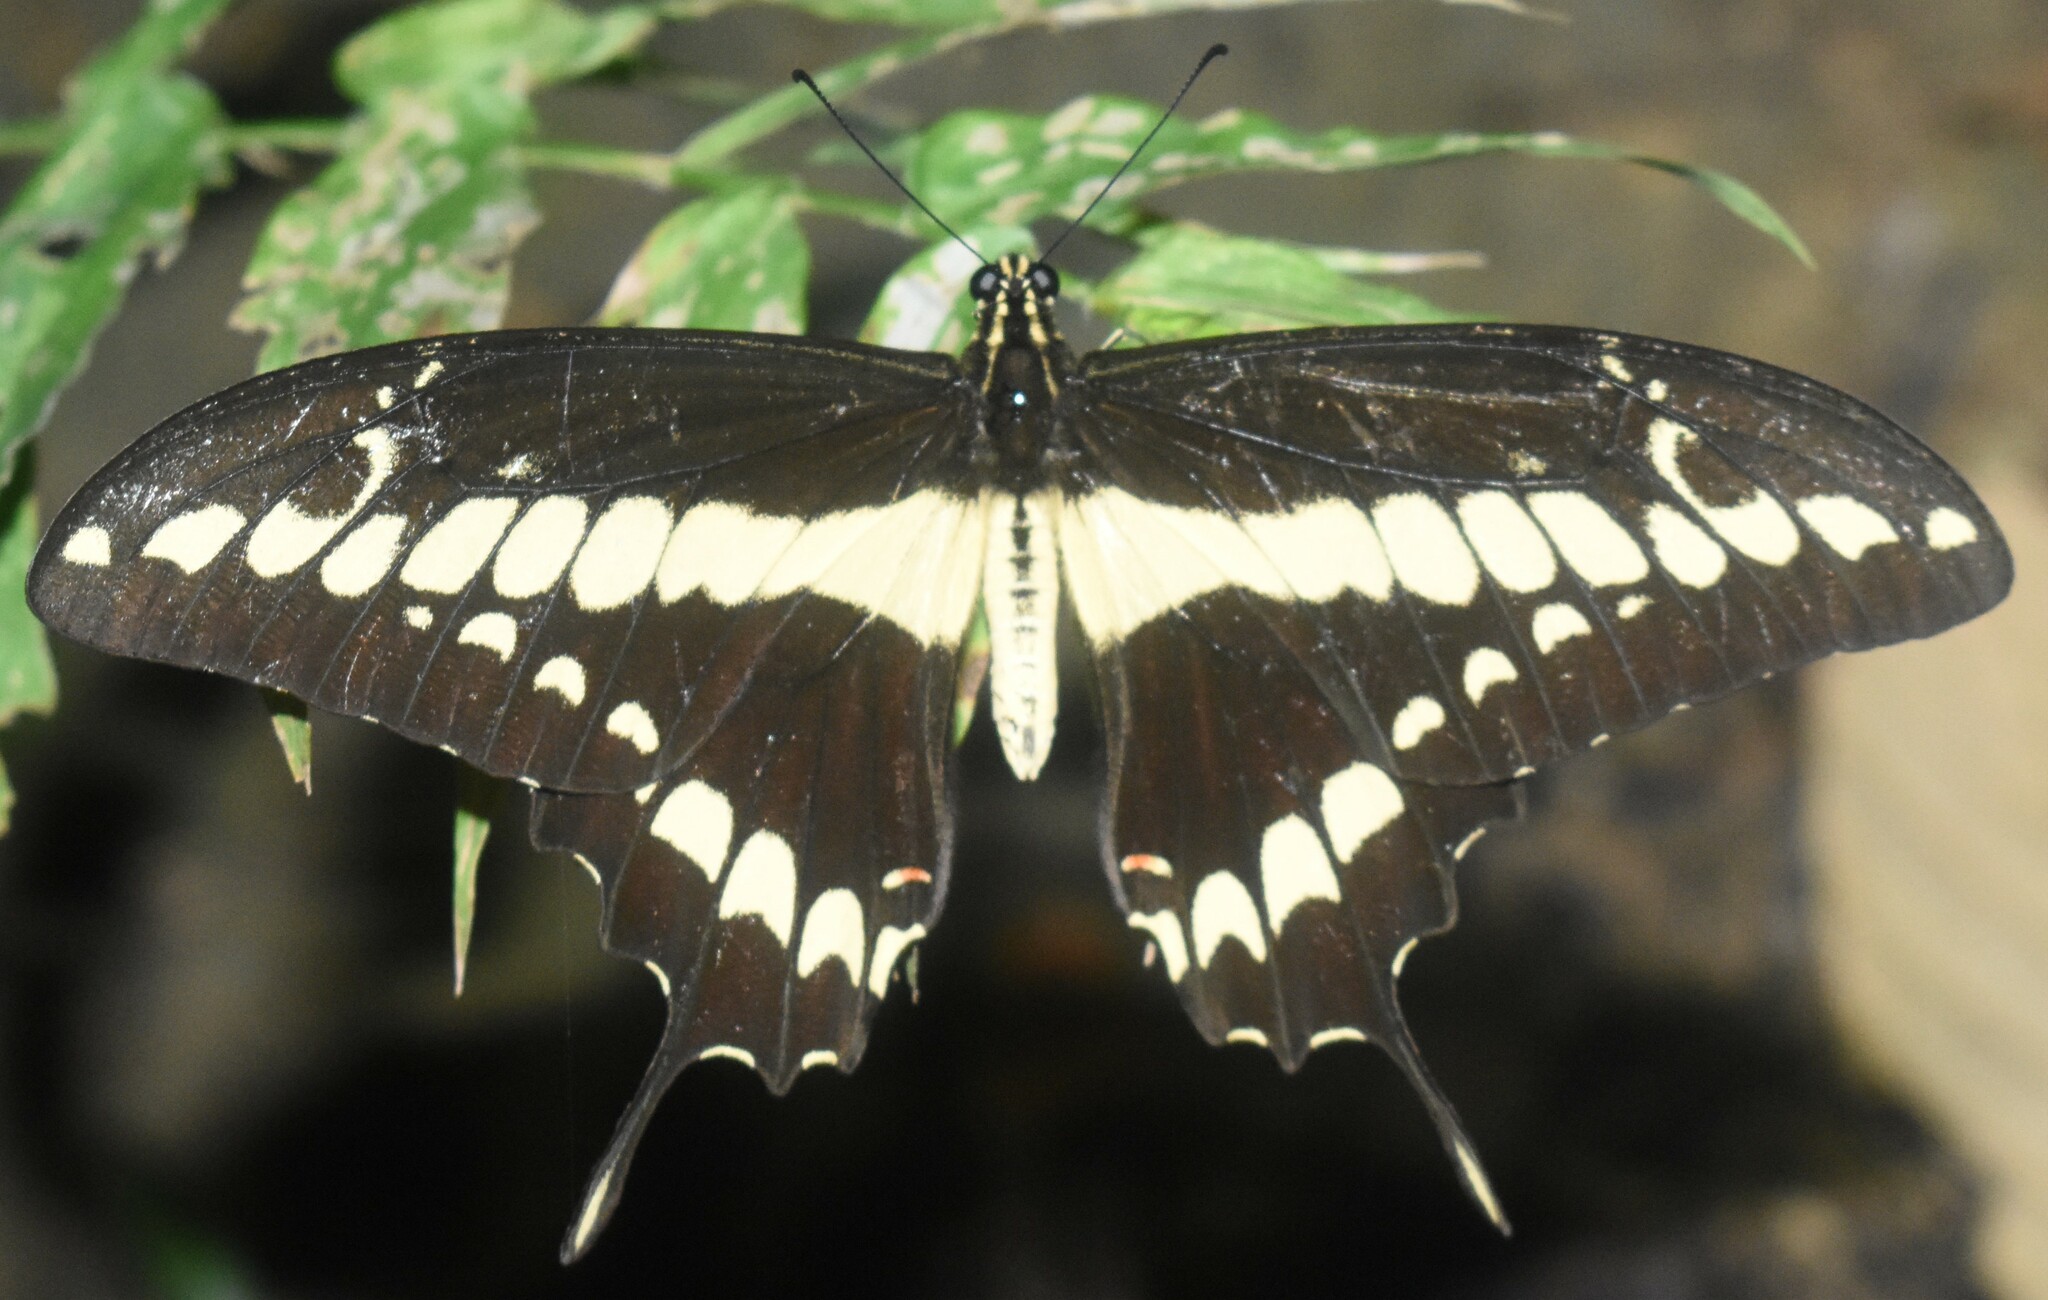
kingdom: Animalia
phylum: Arthropoda
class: Insecta
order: Lepidoptera
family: Papilionidae
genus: Papilio
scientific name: Papilio thoas
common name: King swallowtail
